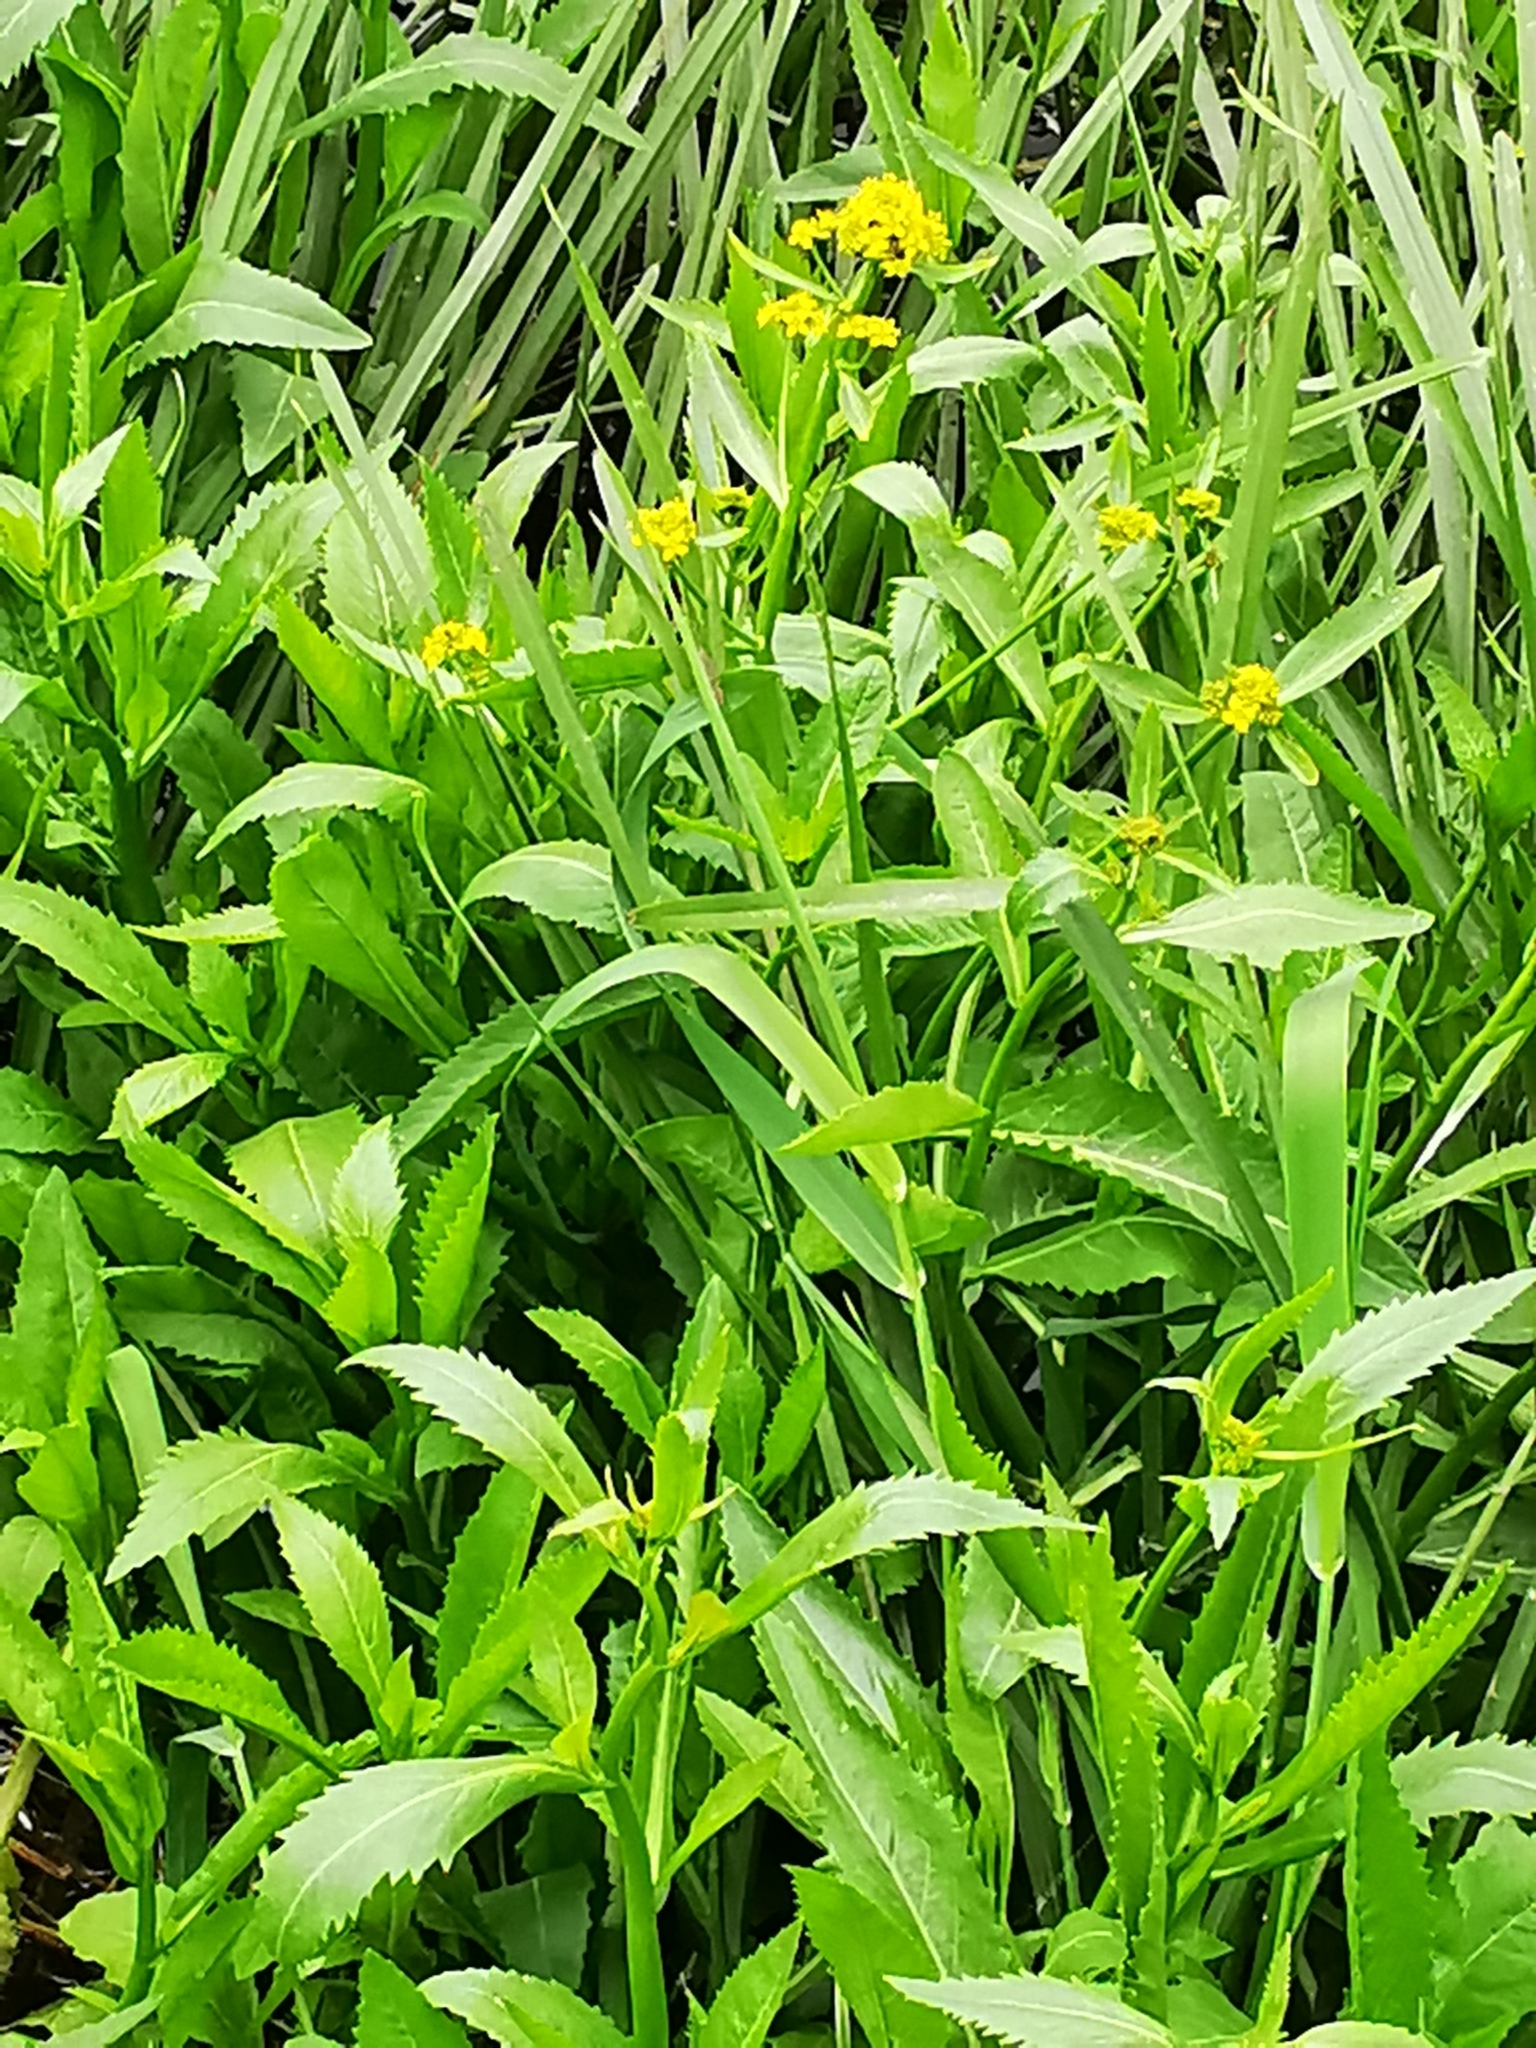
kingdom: Plantae
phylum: Tracheophyta
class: Magnoliopsida
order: Brassicales
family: Brassicaceae
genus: Rorippa
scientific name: Rorippa amphibia
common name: Great yellow-cress
